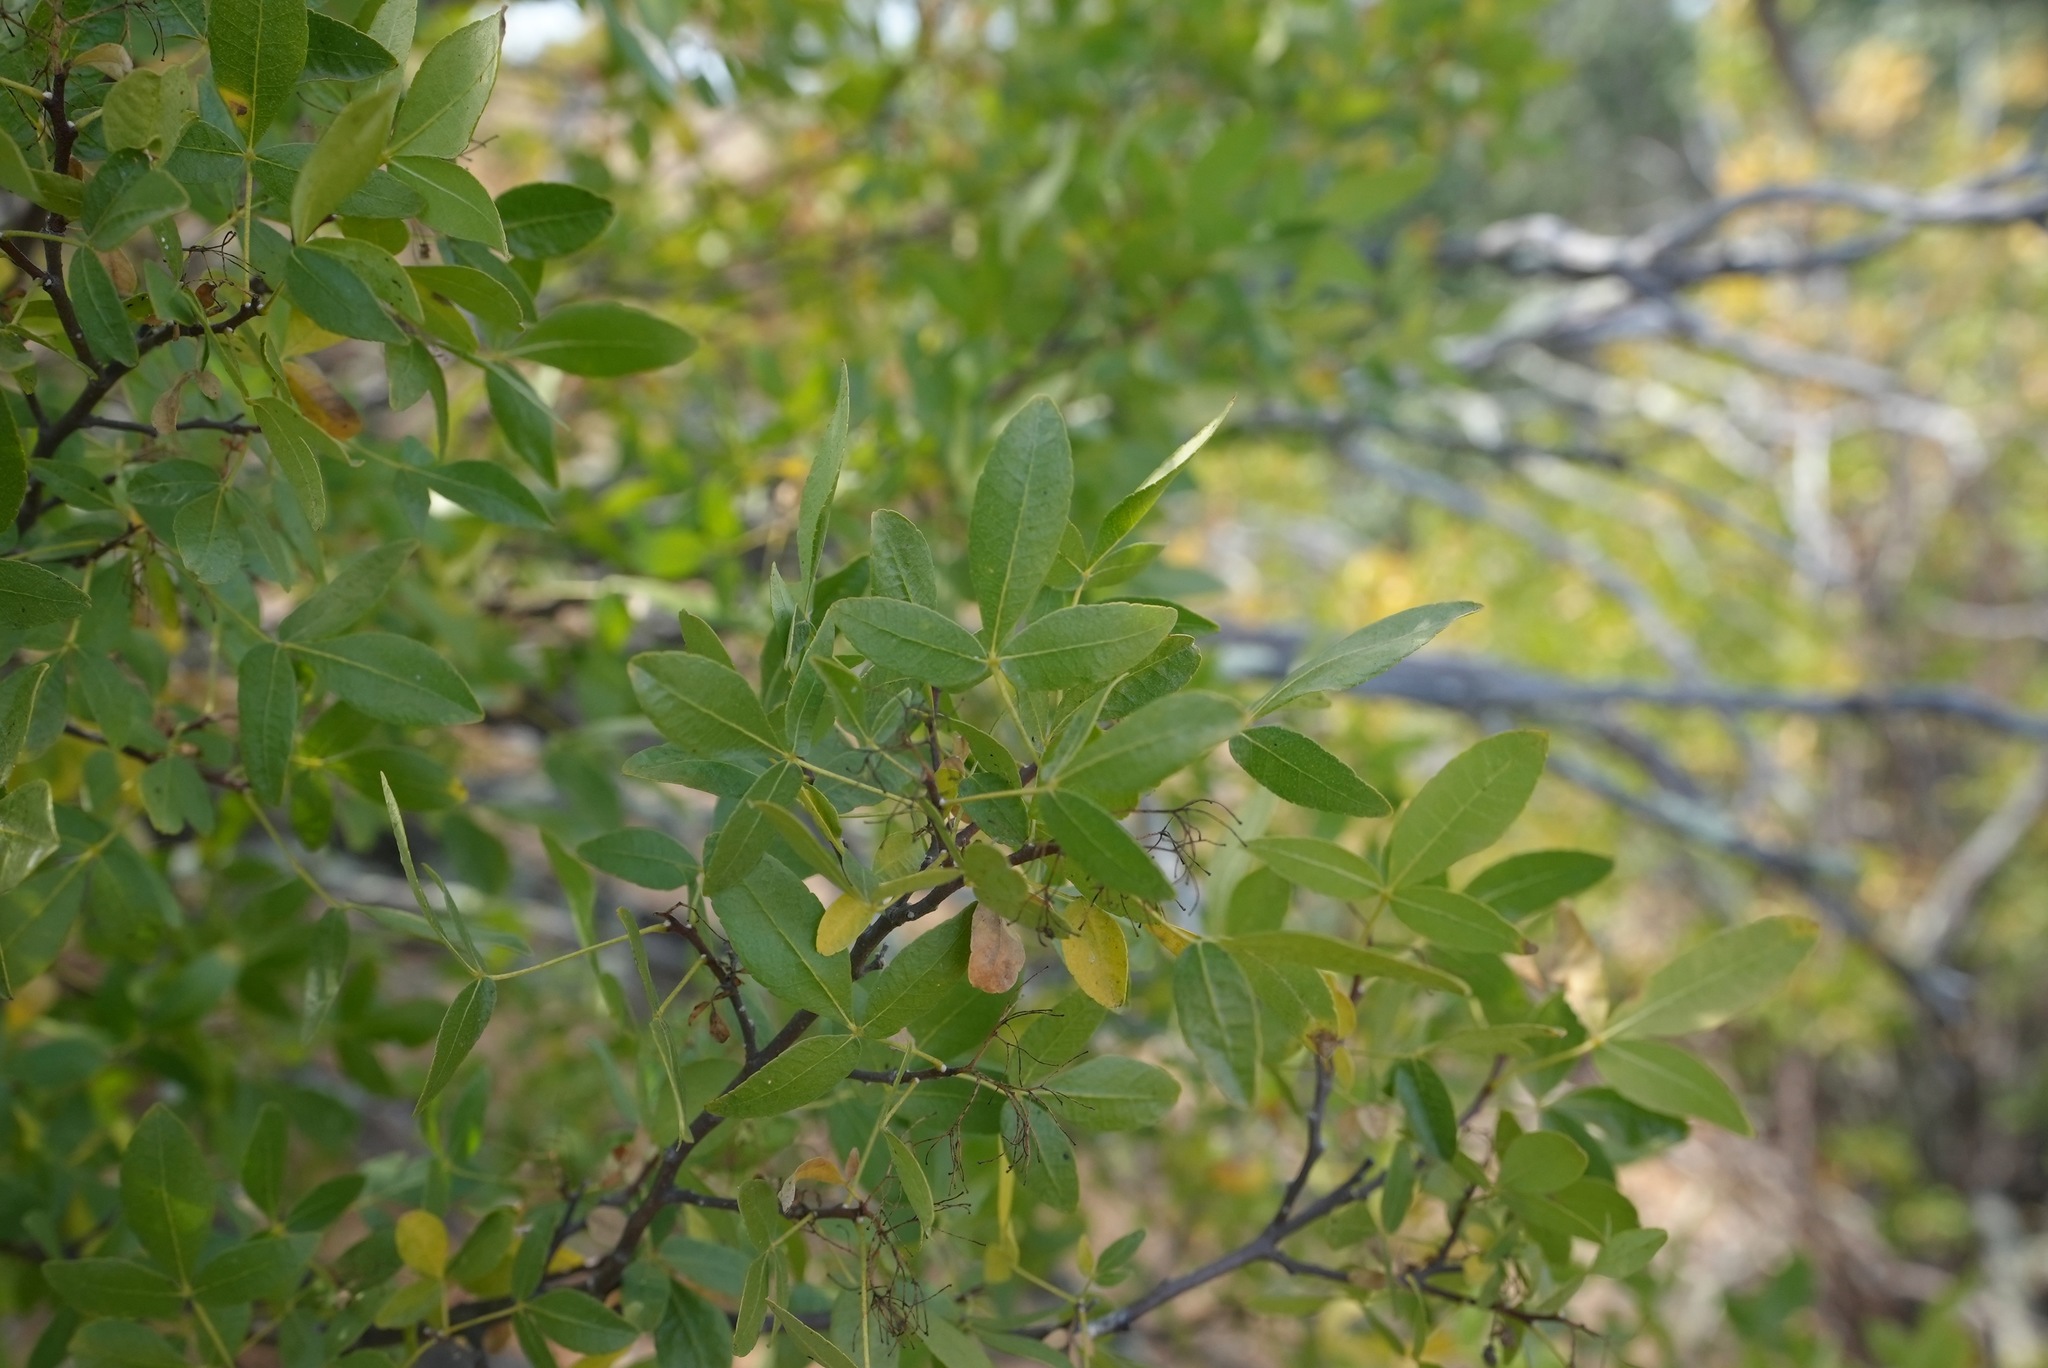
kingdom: Plantae
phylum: Tracheophyta
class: Magnoliopsida
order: Sapindales
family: Rutaceae
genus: Ptelea
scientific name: Ptelea crenulata
